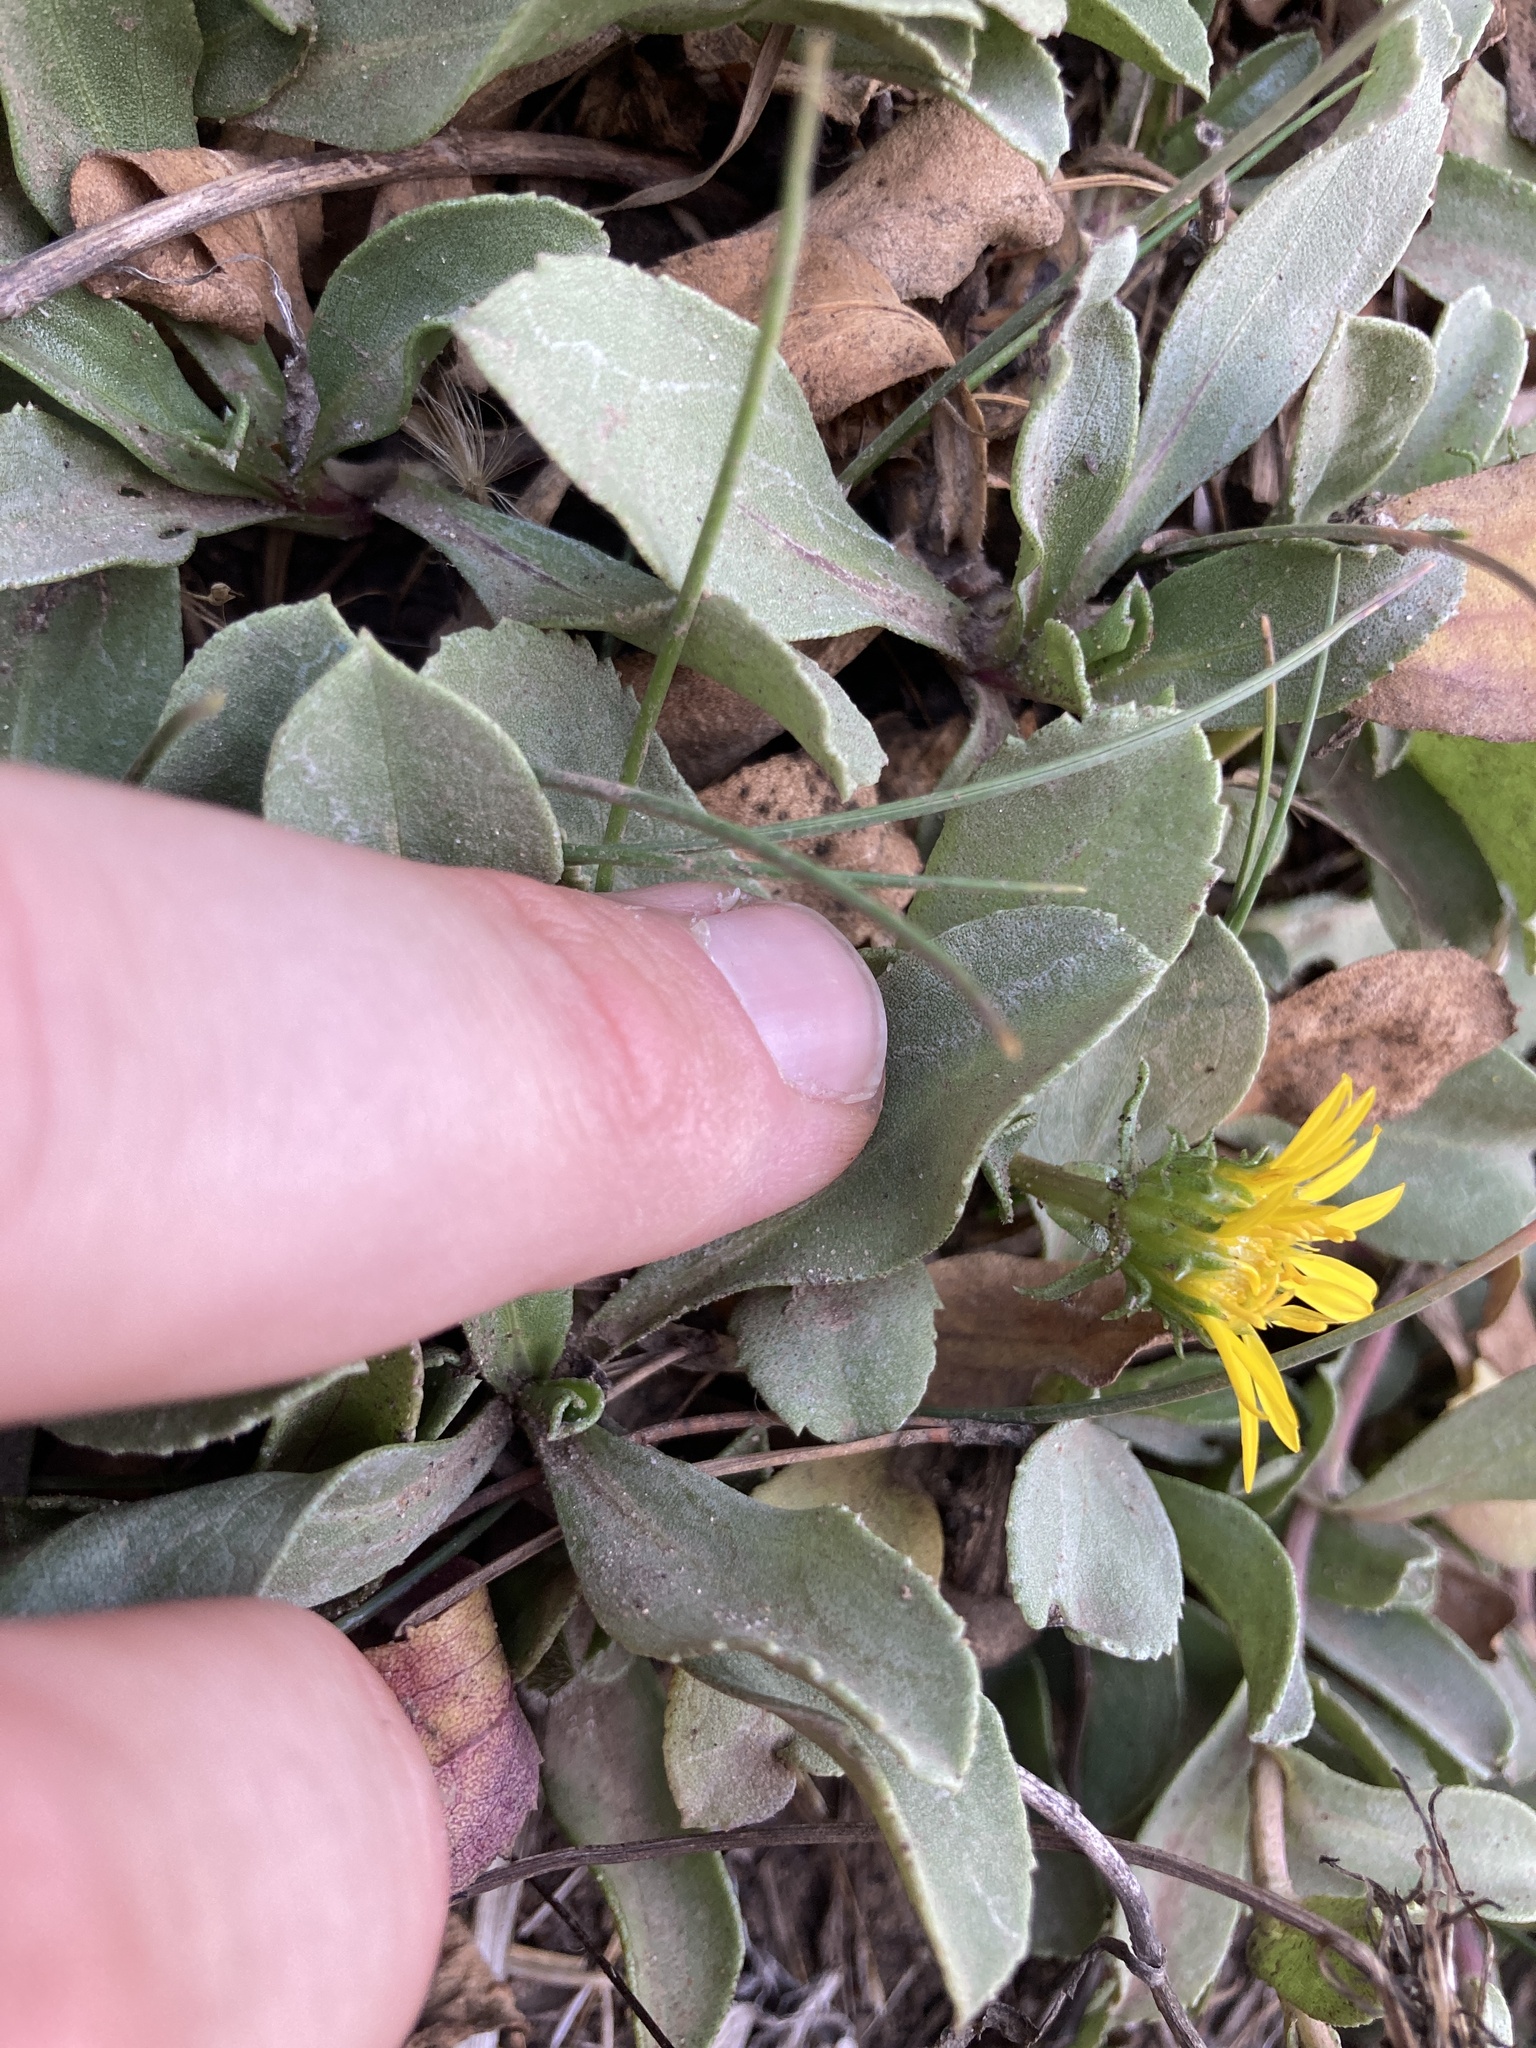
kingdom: Plantae
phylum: Tracheophyta
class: Magnoliopsida
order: Asterales
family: Asteraceae
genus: Grindelia
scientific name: Grindelia hirsutula
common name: Hairy gumweed
